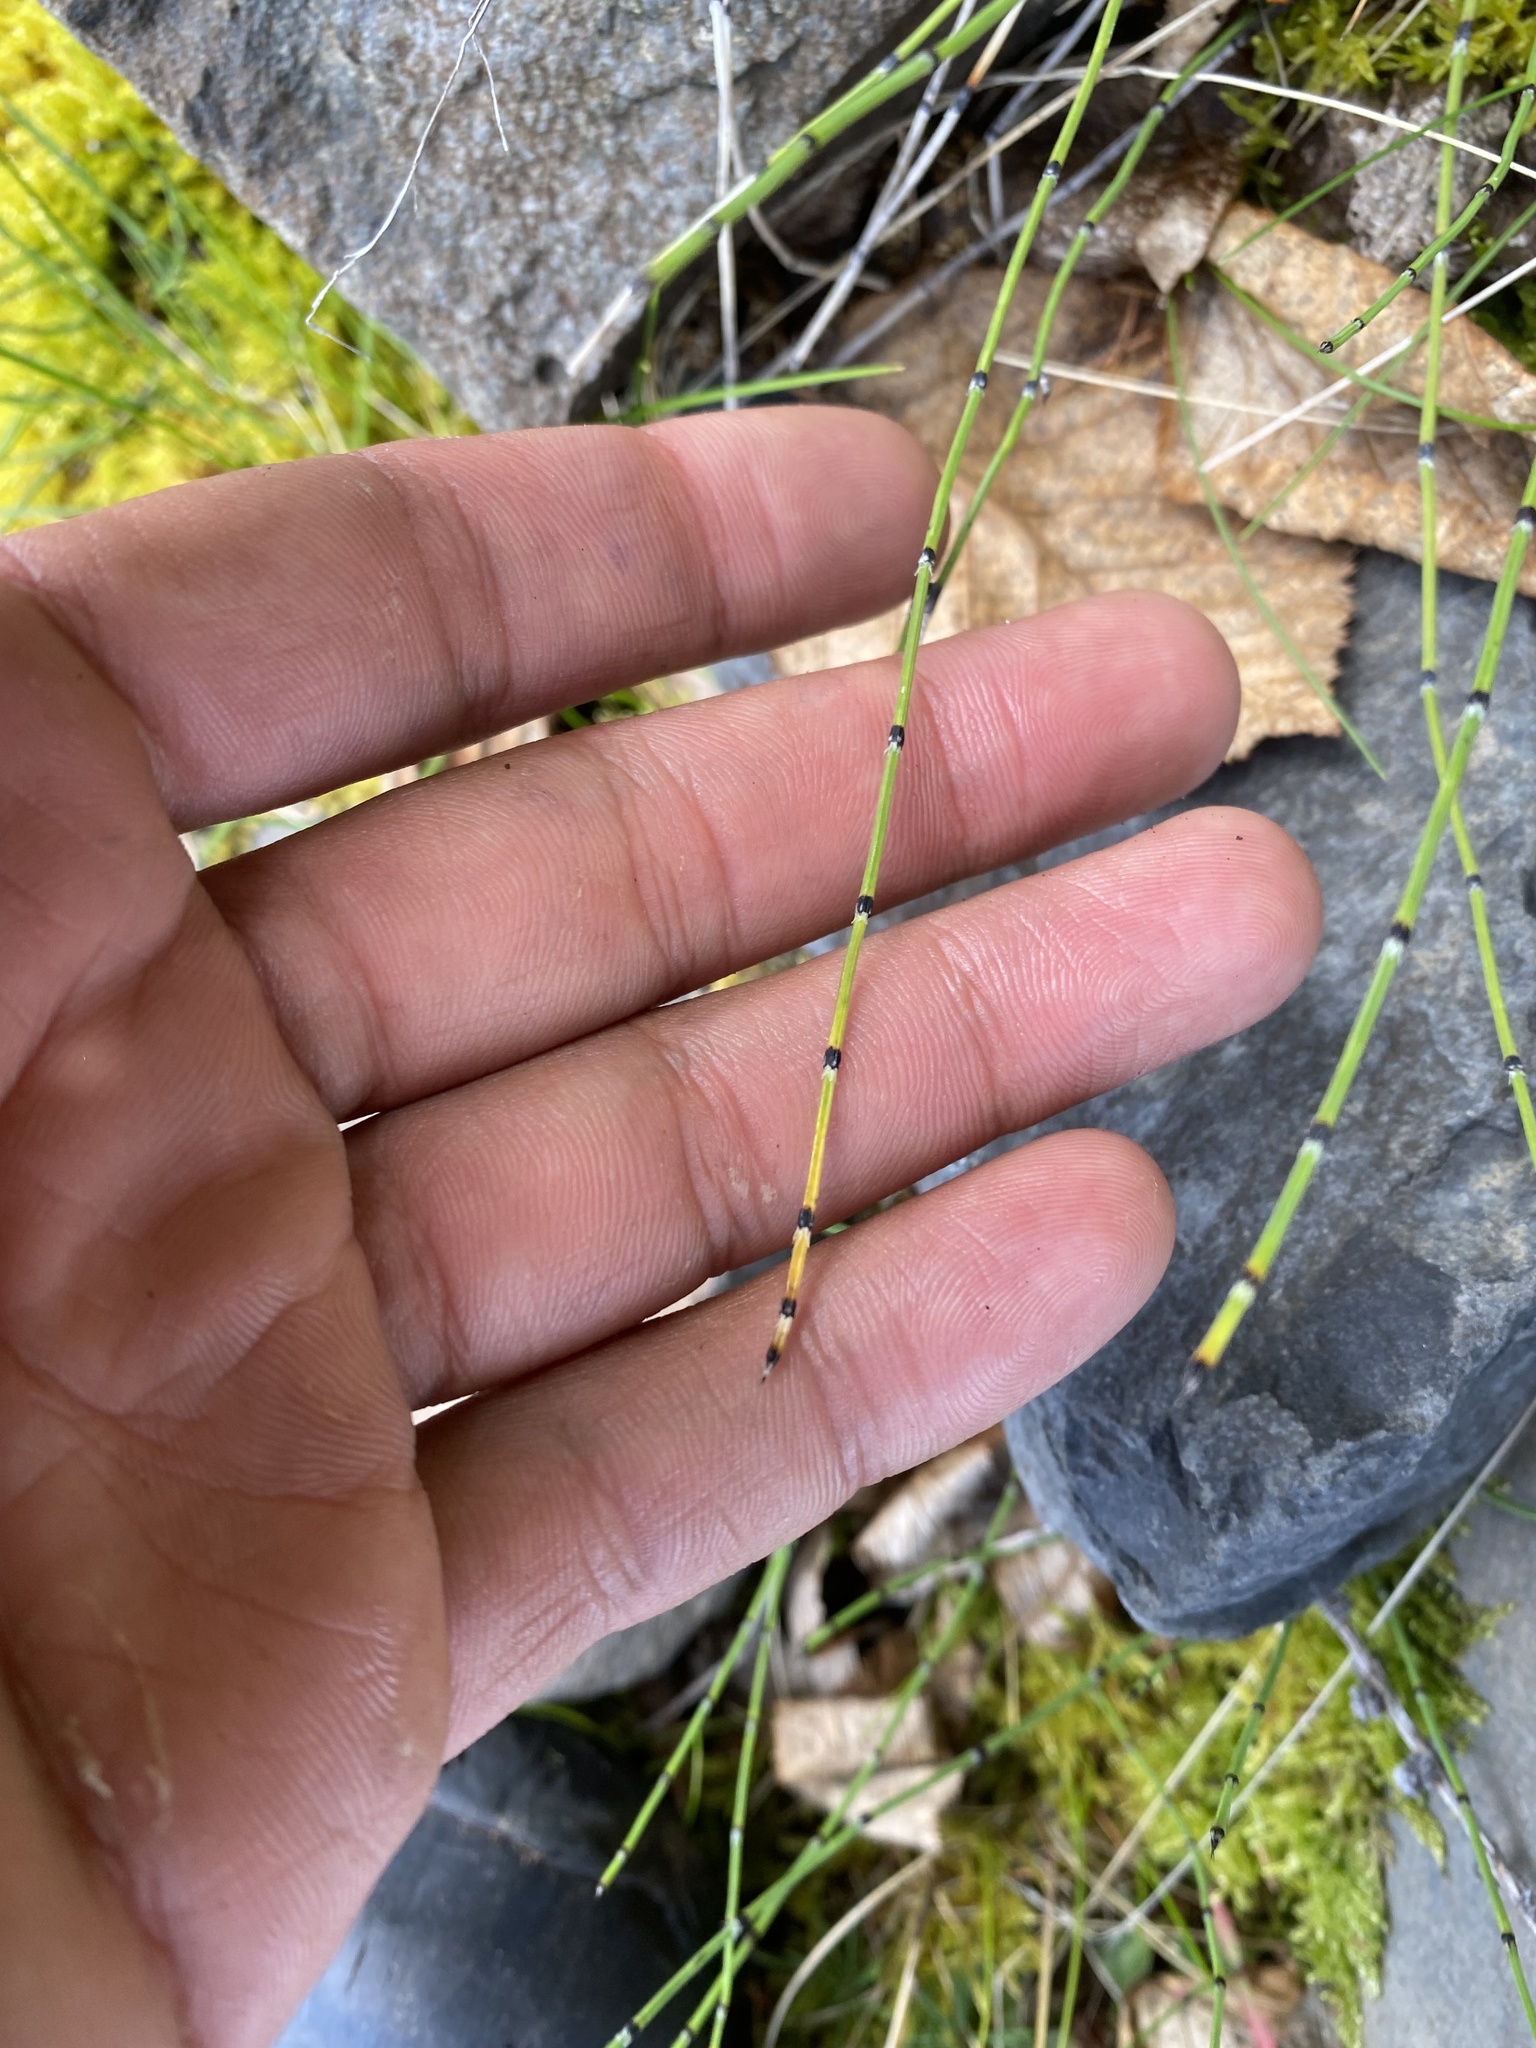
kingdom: Plantae
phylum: Tracheophyta
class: Polypodiopsida
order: Equisetales
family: Equisetaceae
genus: Equisetum
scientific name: Equisetum variegatum
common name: Variegated horsetail
